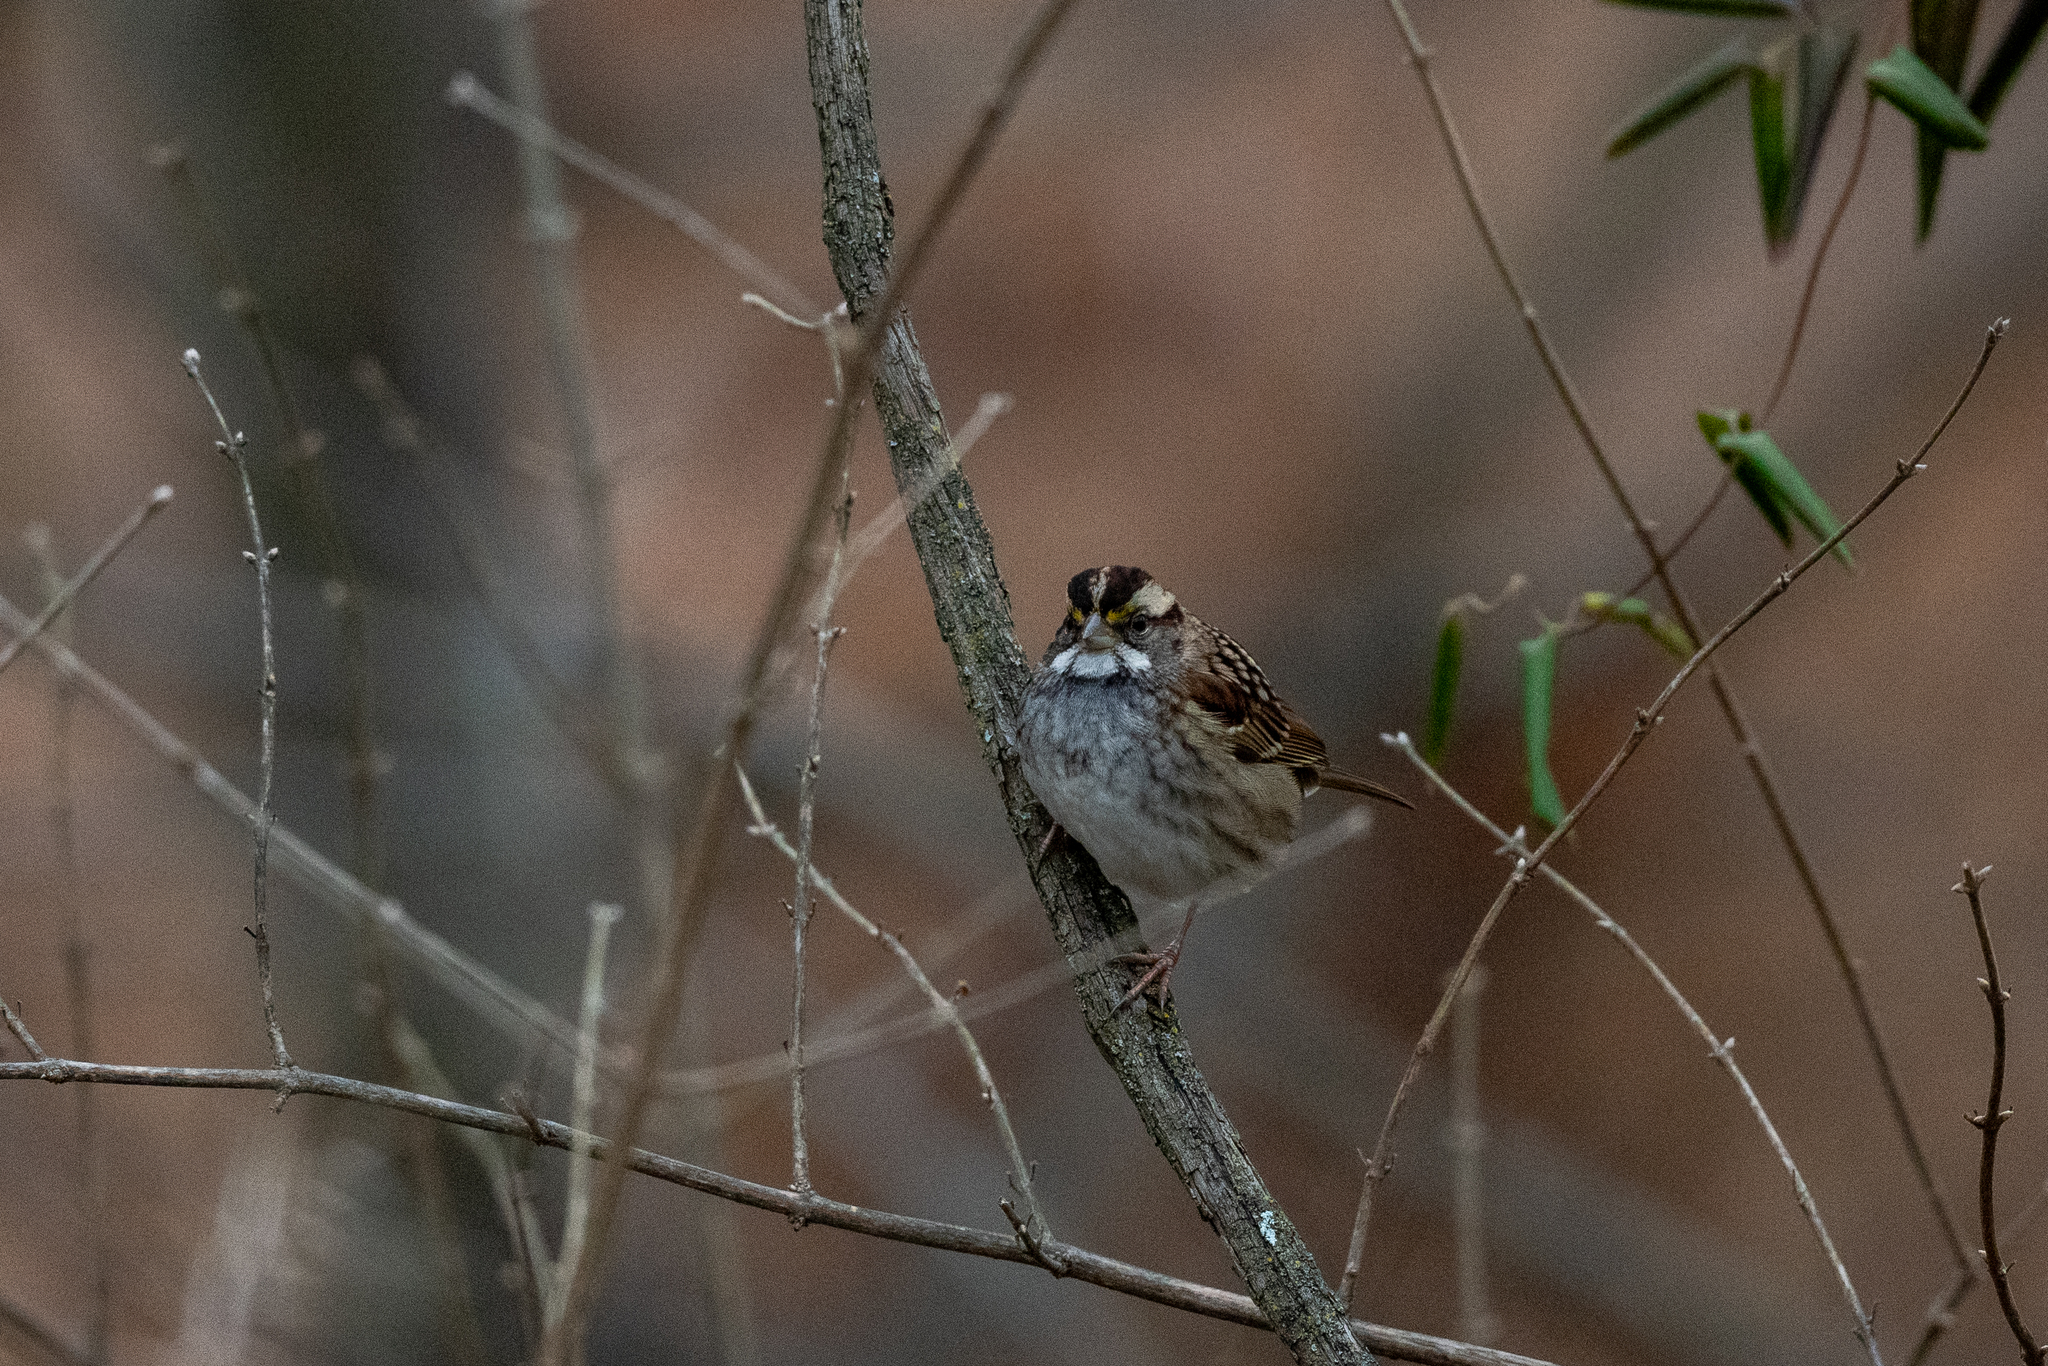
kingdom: Animalia
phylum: Chordata
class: Aves
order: Passeriformes
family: Passerellidae
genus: Zonotrichia
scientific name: Zonotrichia albicollis
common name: White-throated sparrow
